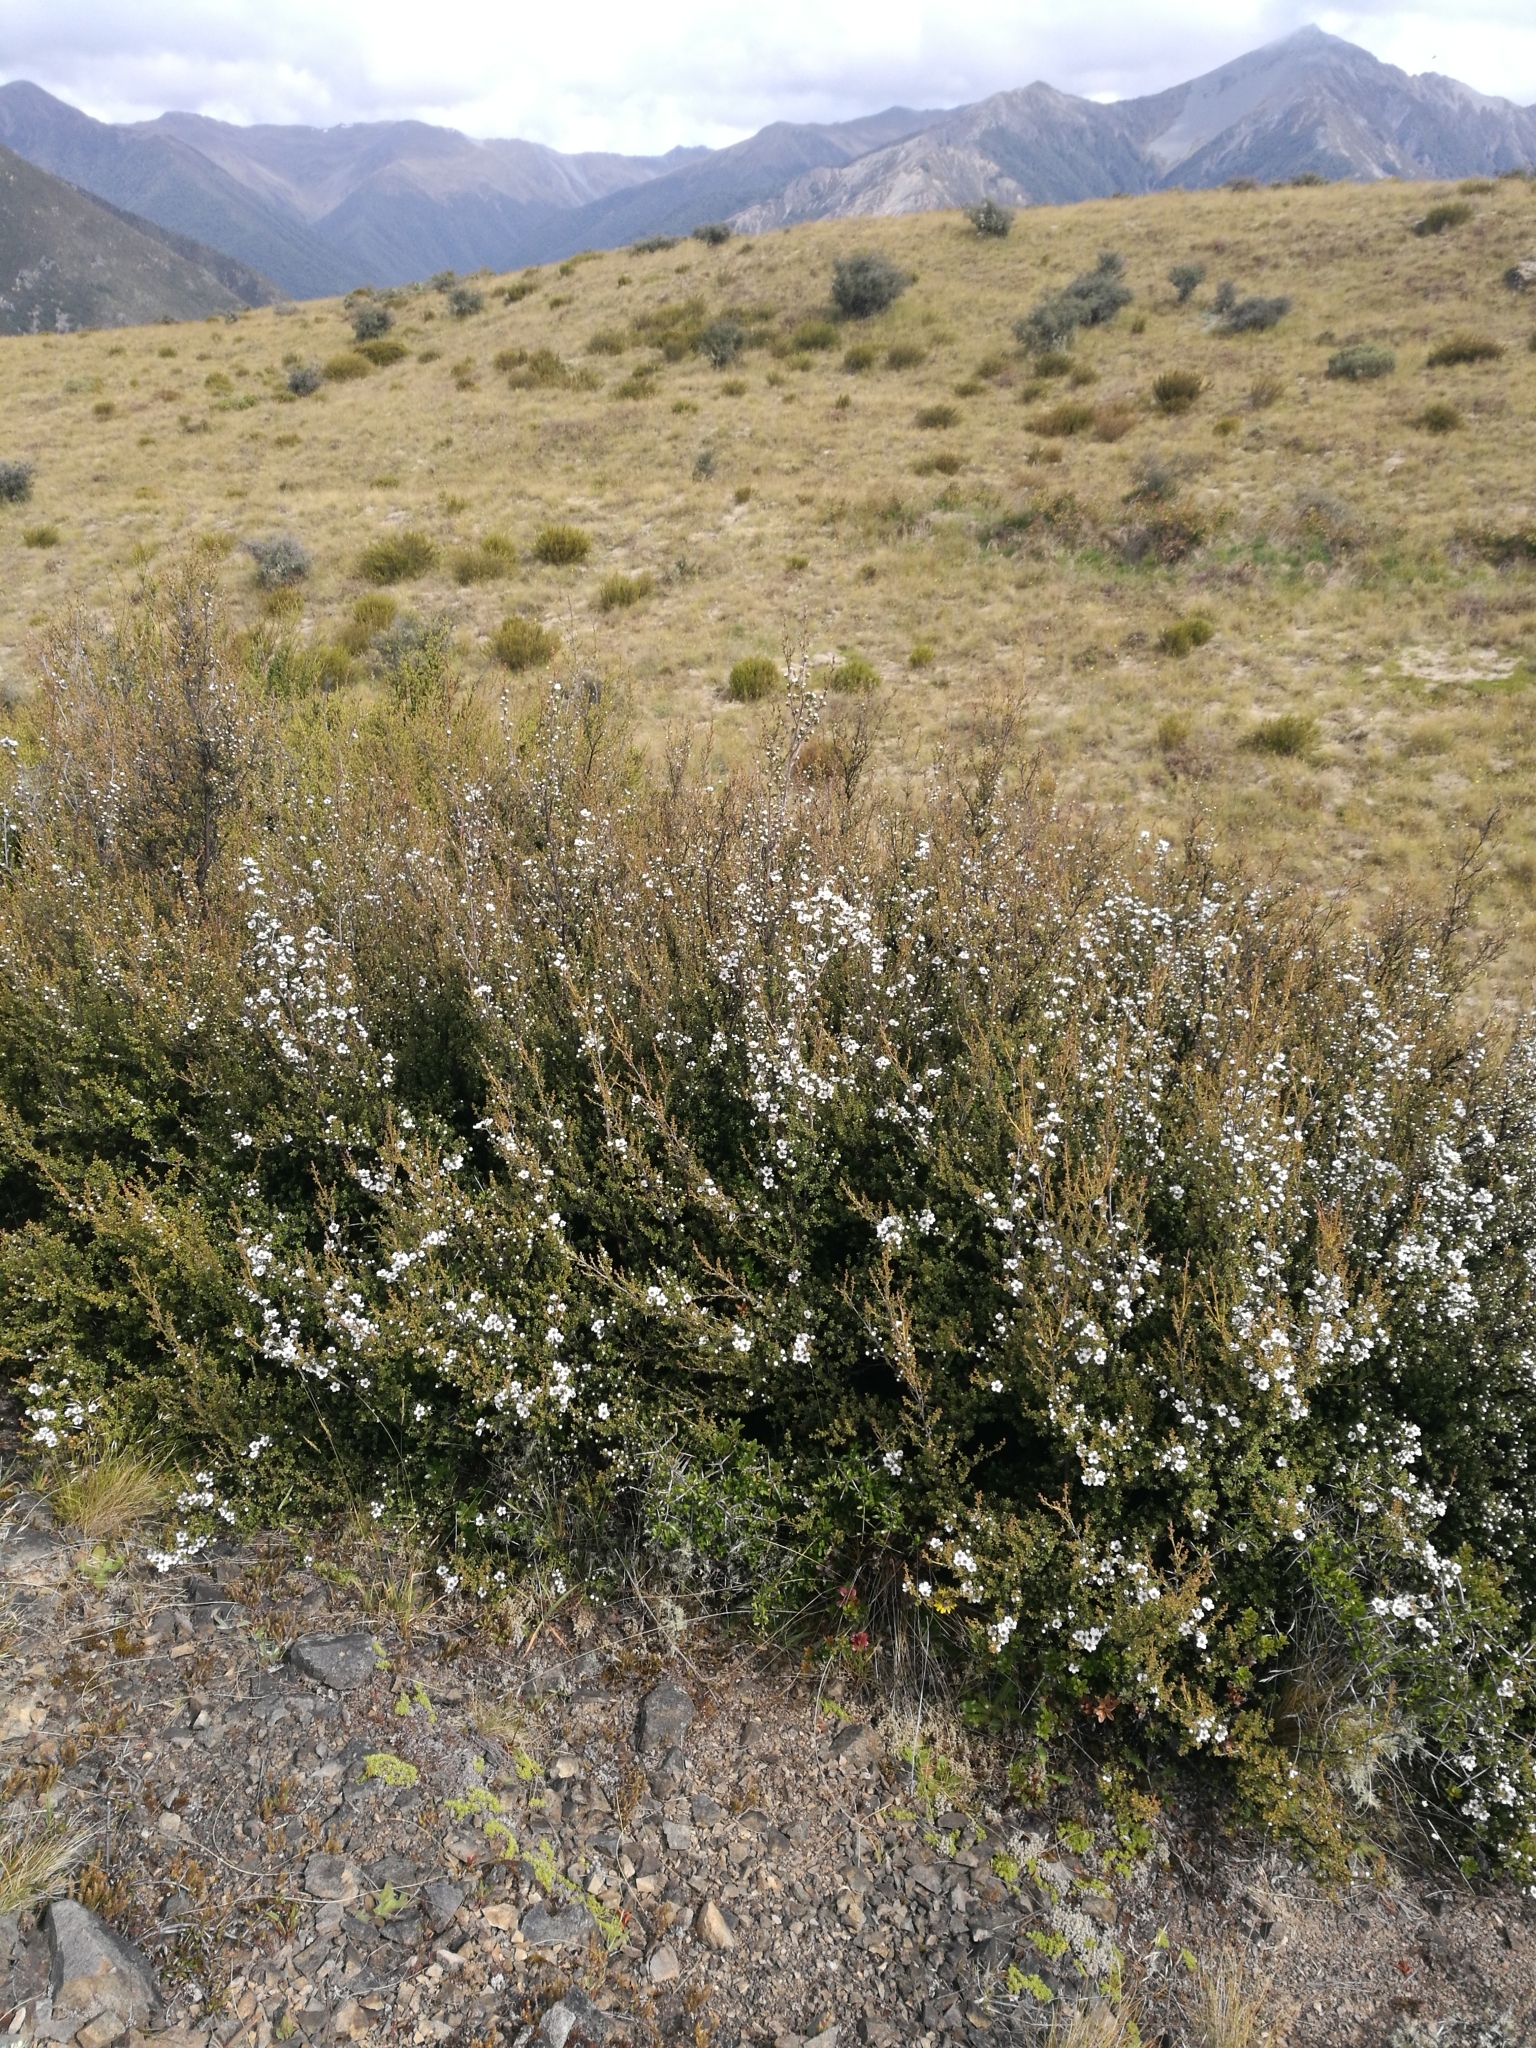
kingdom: Plantae
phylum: Tracheophyta
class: Magnoliopsida
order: Myrtales
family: Myrtaceae
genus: Leptospermum
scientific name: Leptospermum scoparium
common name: Broom tea-tree
